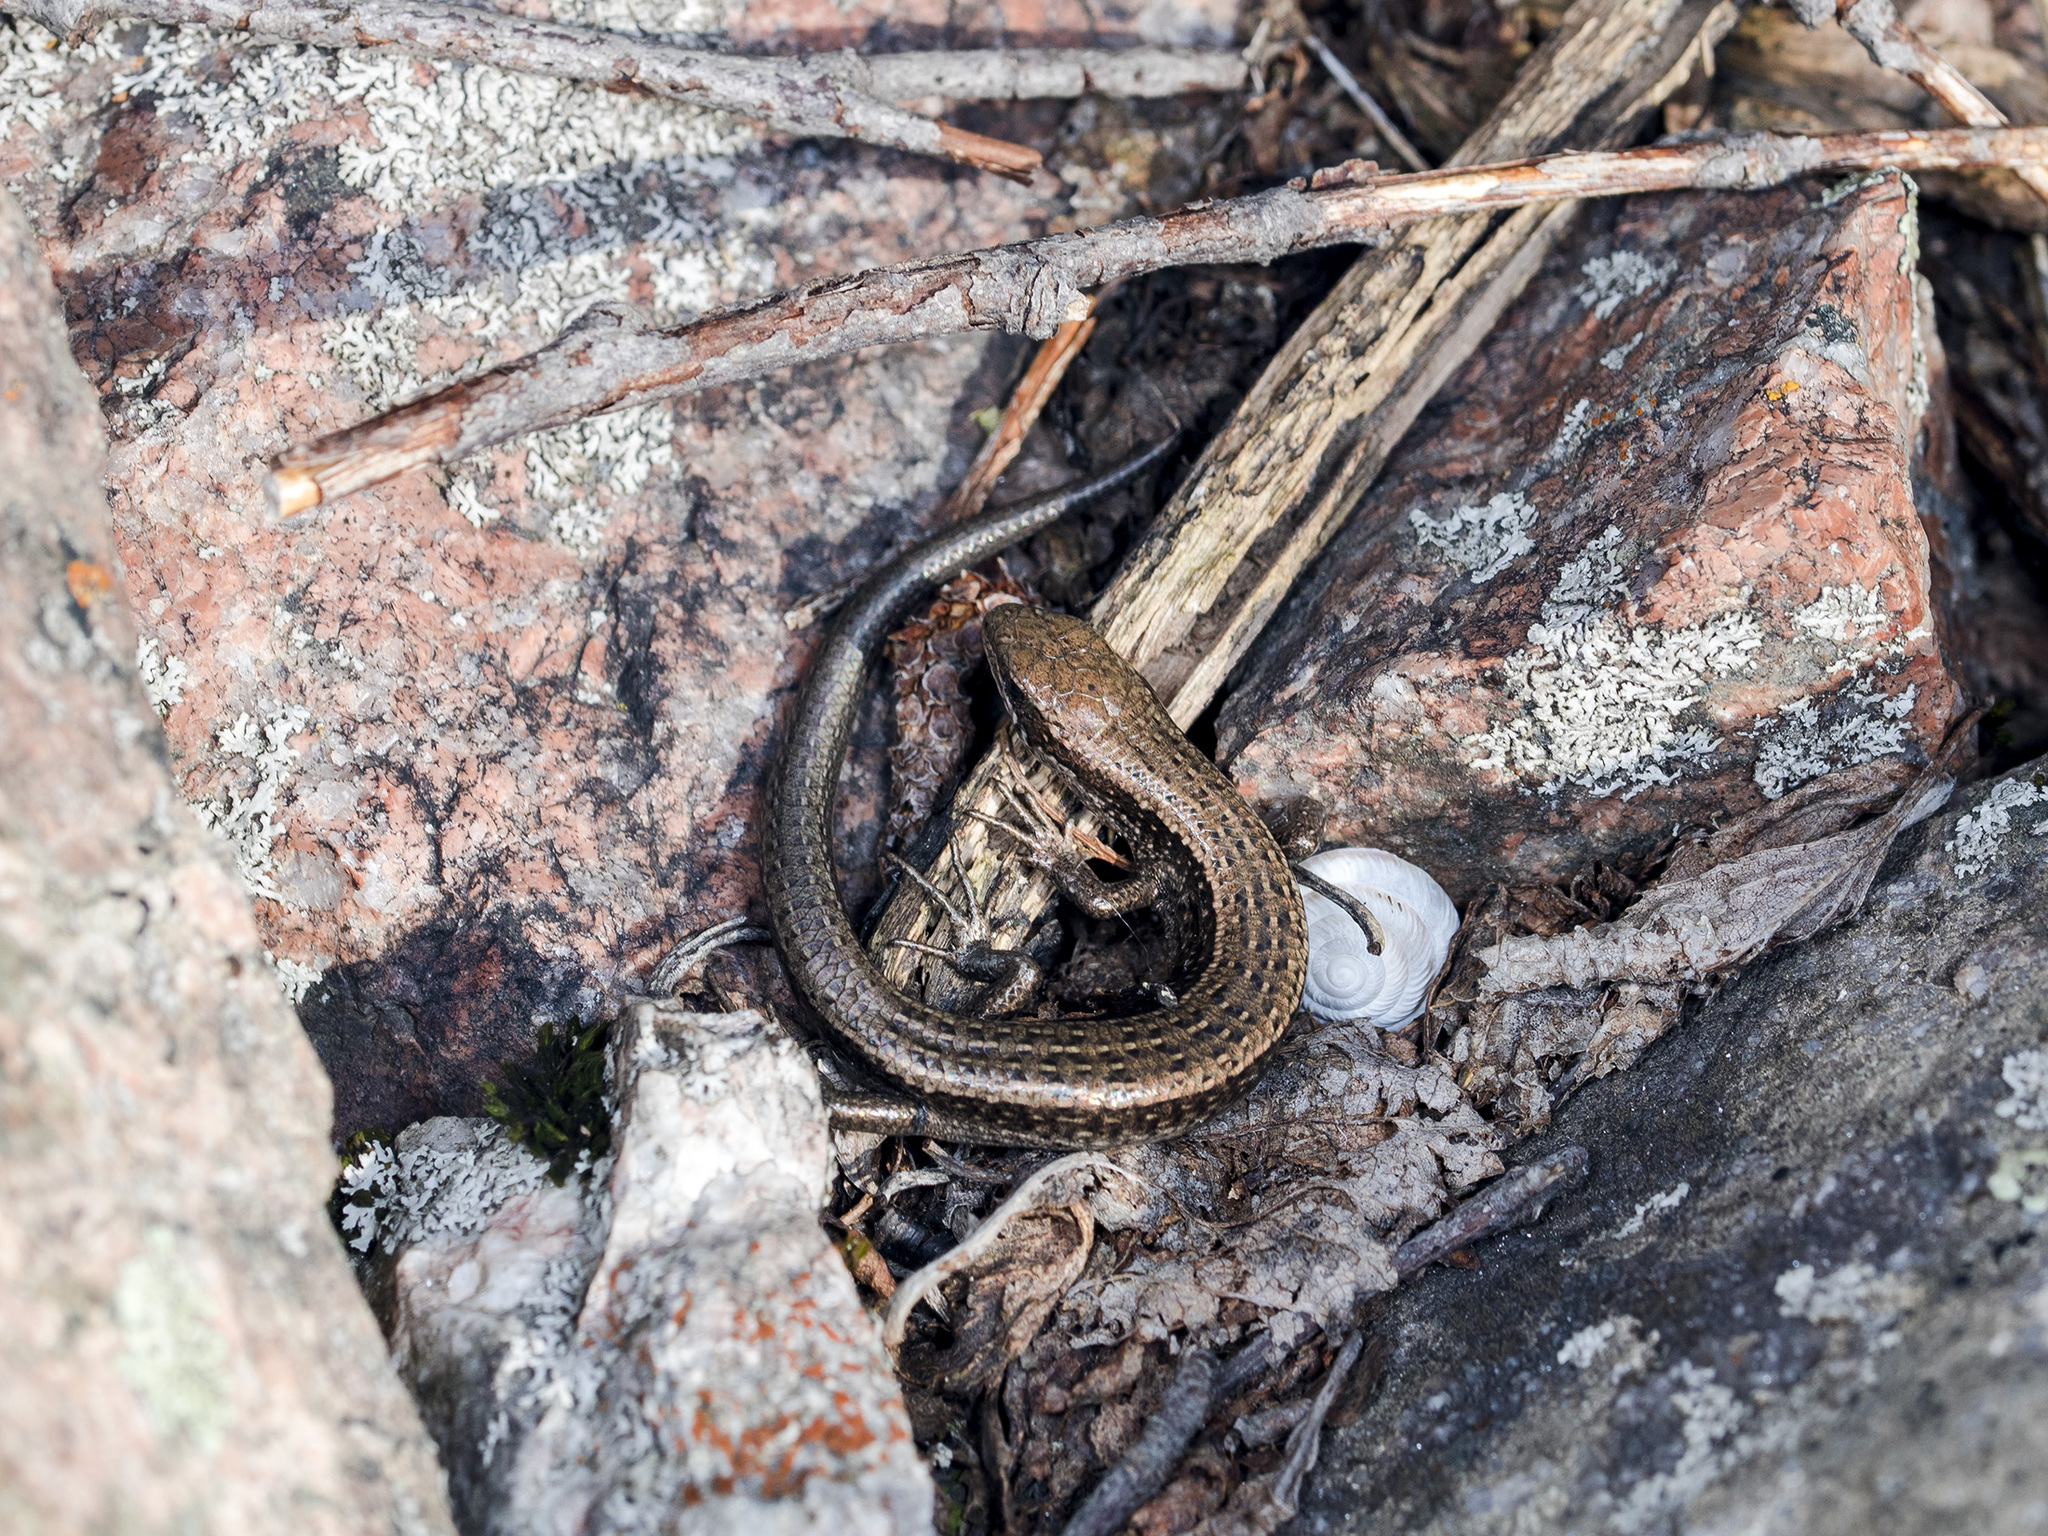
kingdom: Animalia
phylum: Chordata
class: Squamata
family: Scincidae
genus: Asymblepharus
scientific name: Asymblepharus alaicus
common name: Alai ground skink
